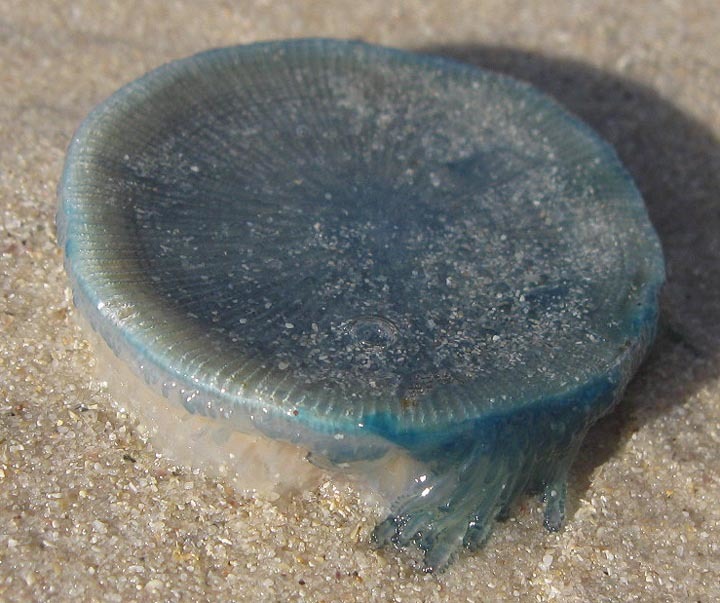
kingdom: Animalia
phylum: Cnidaria
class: Hydrozoa
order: Anthoathecata
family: Porpitidae
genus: Porpita
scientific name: Porpita porpita
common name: Blue button
